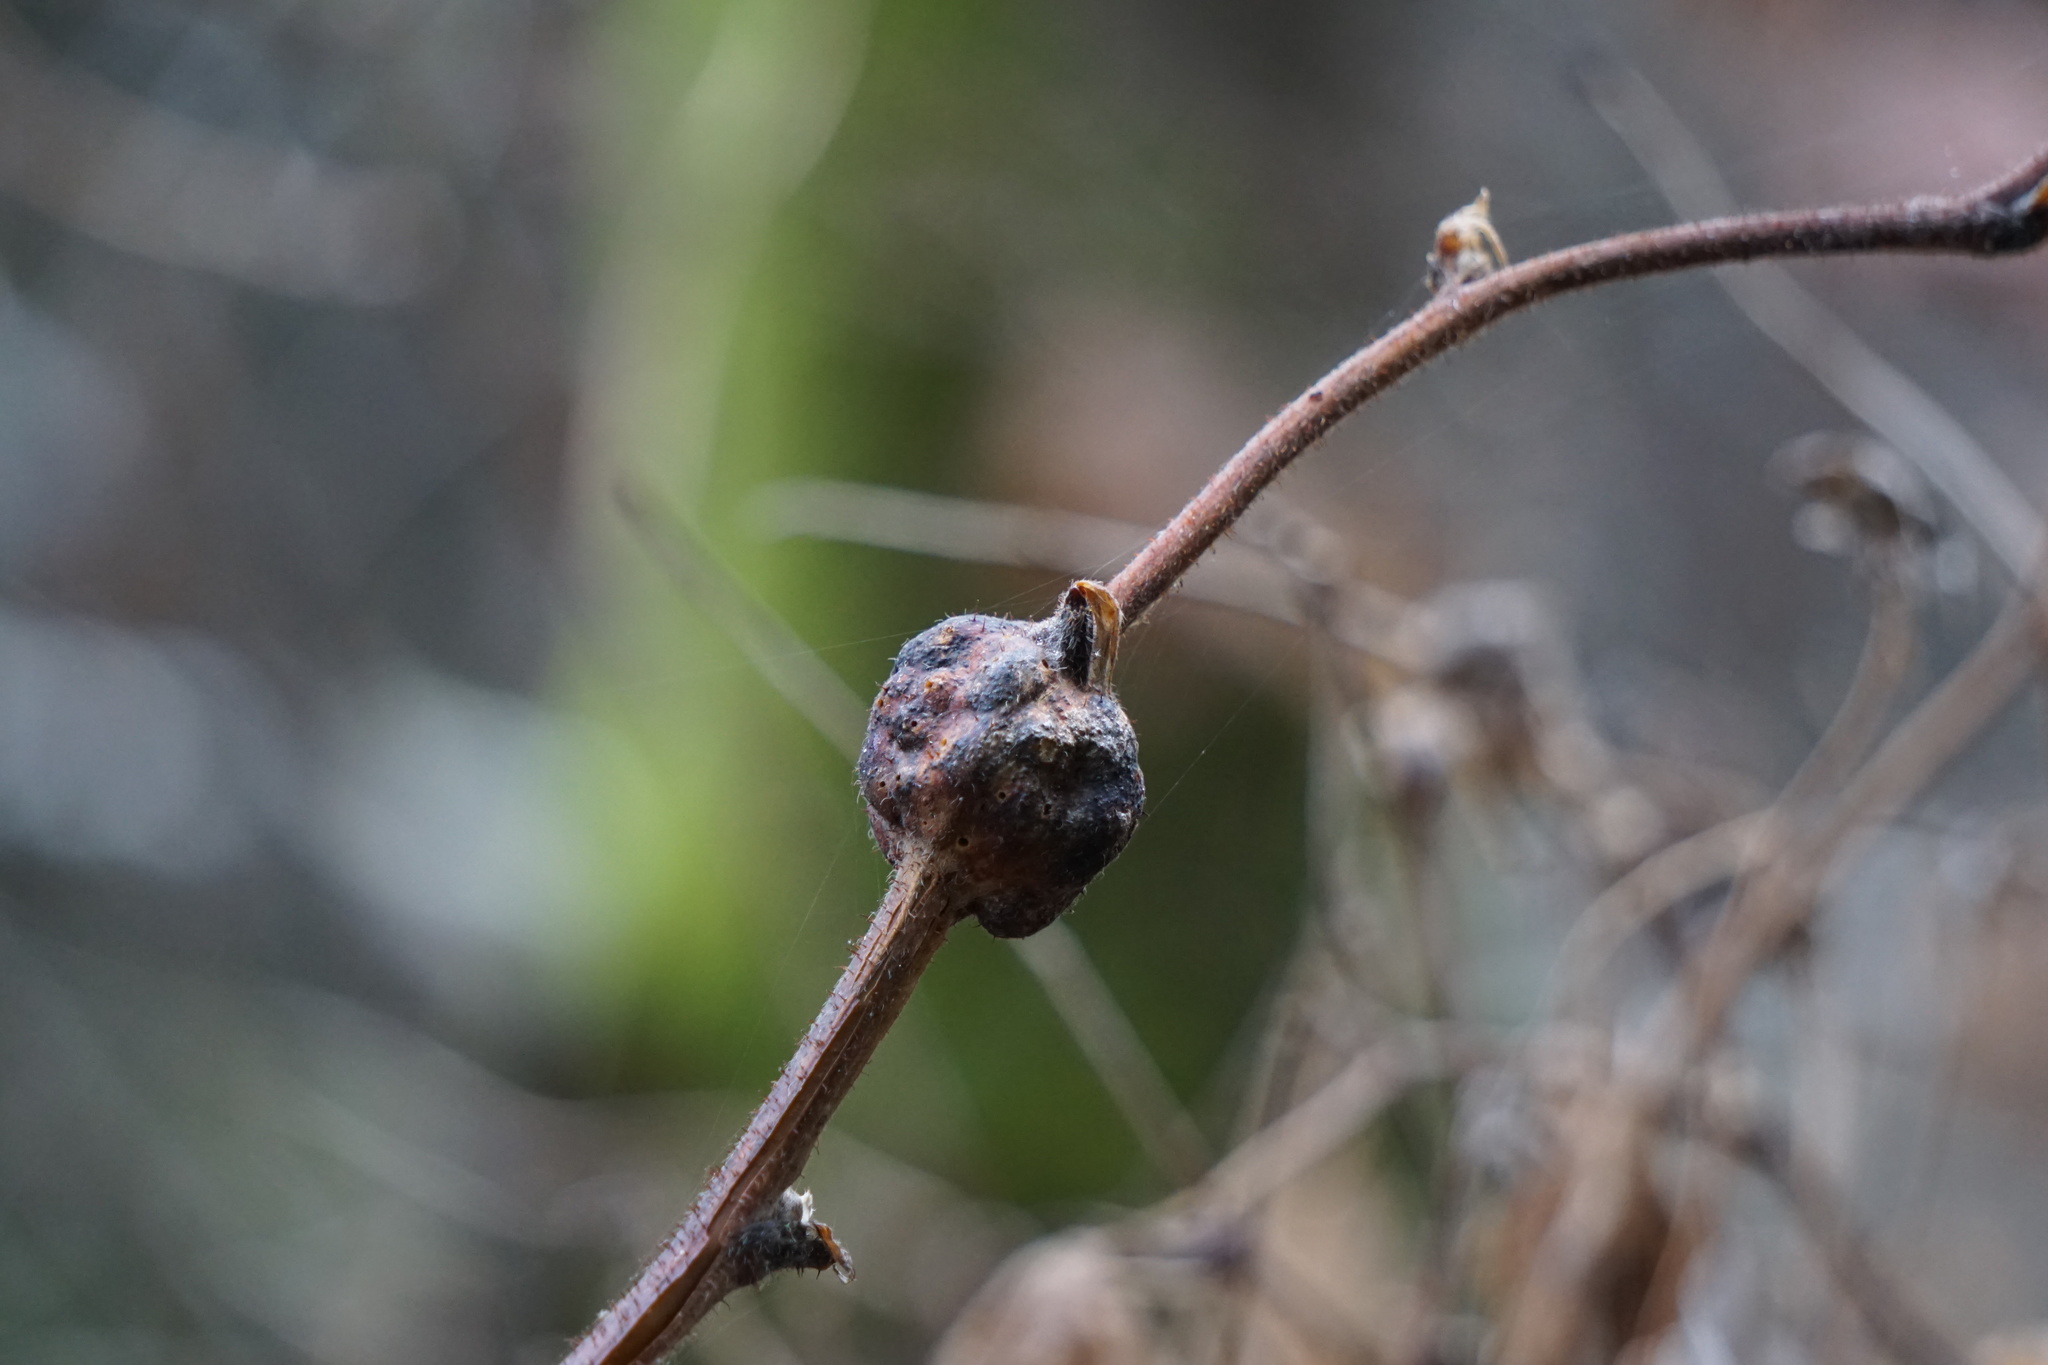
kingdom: Animalia
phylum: Arthropoda
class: Insecta
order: Hymenoptera
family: Cynipidae
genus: Diastrophus
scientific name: Diastrophus
